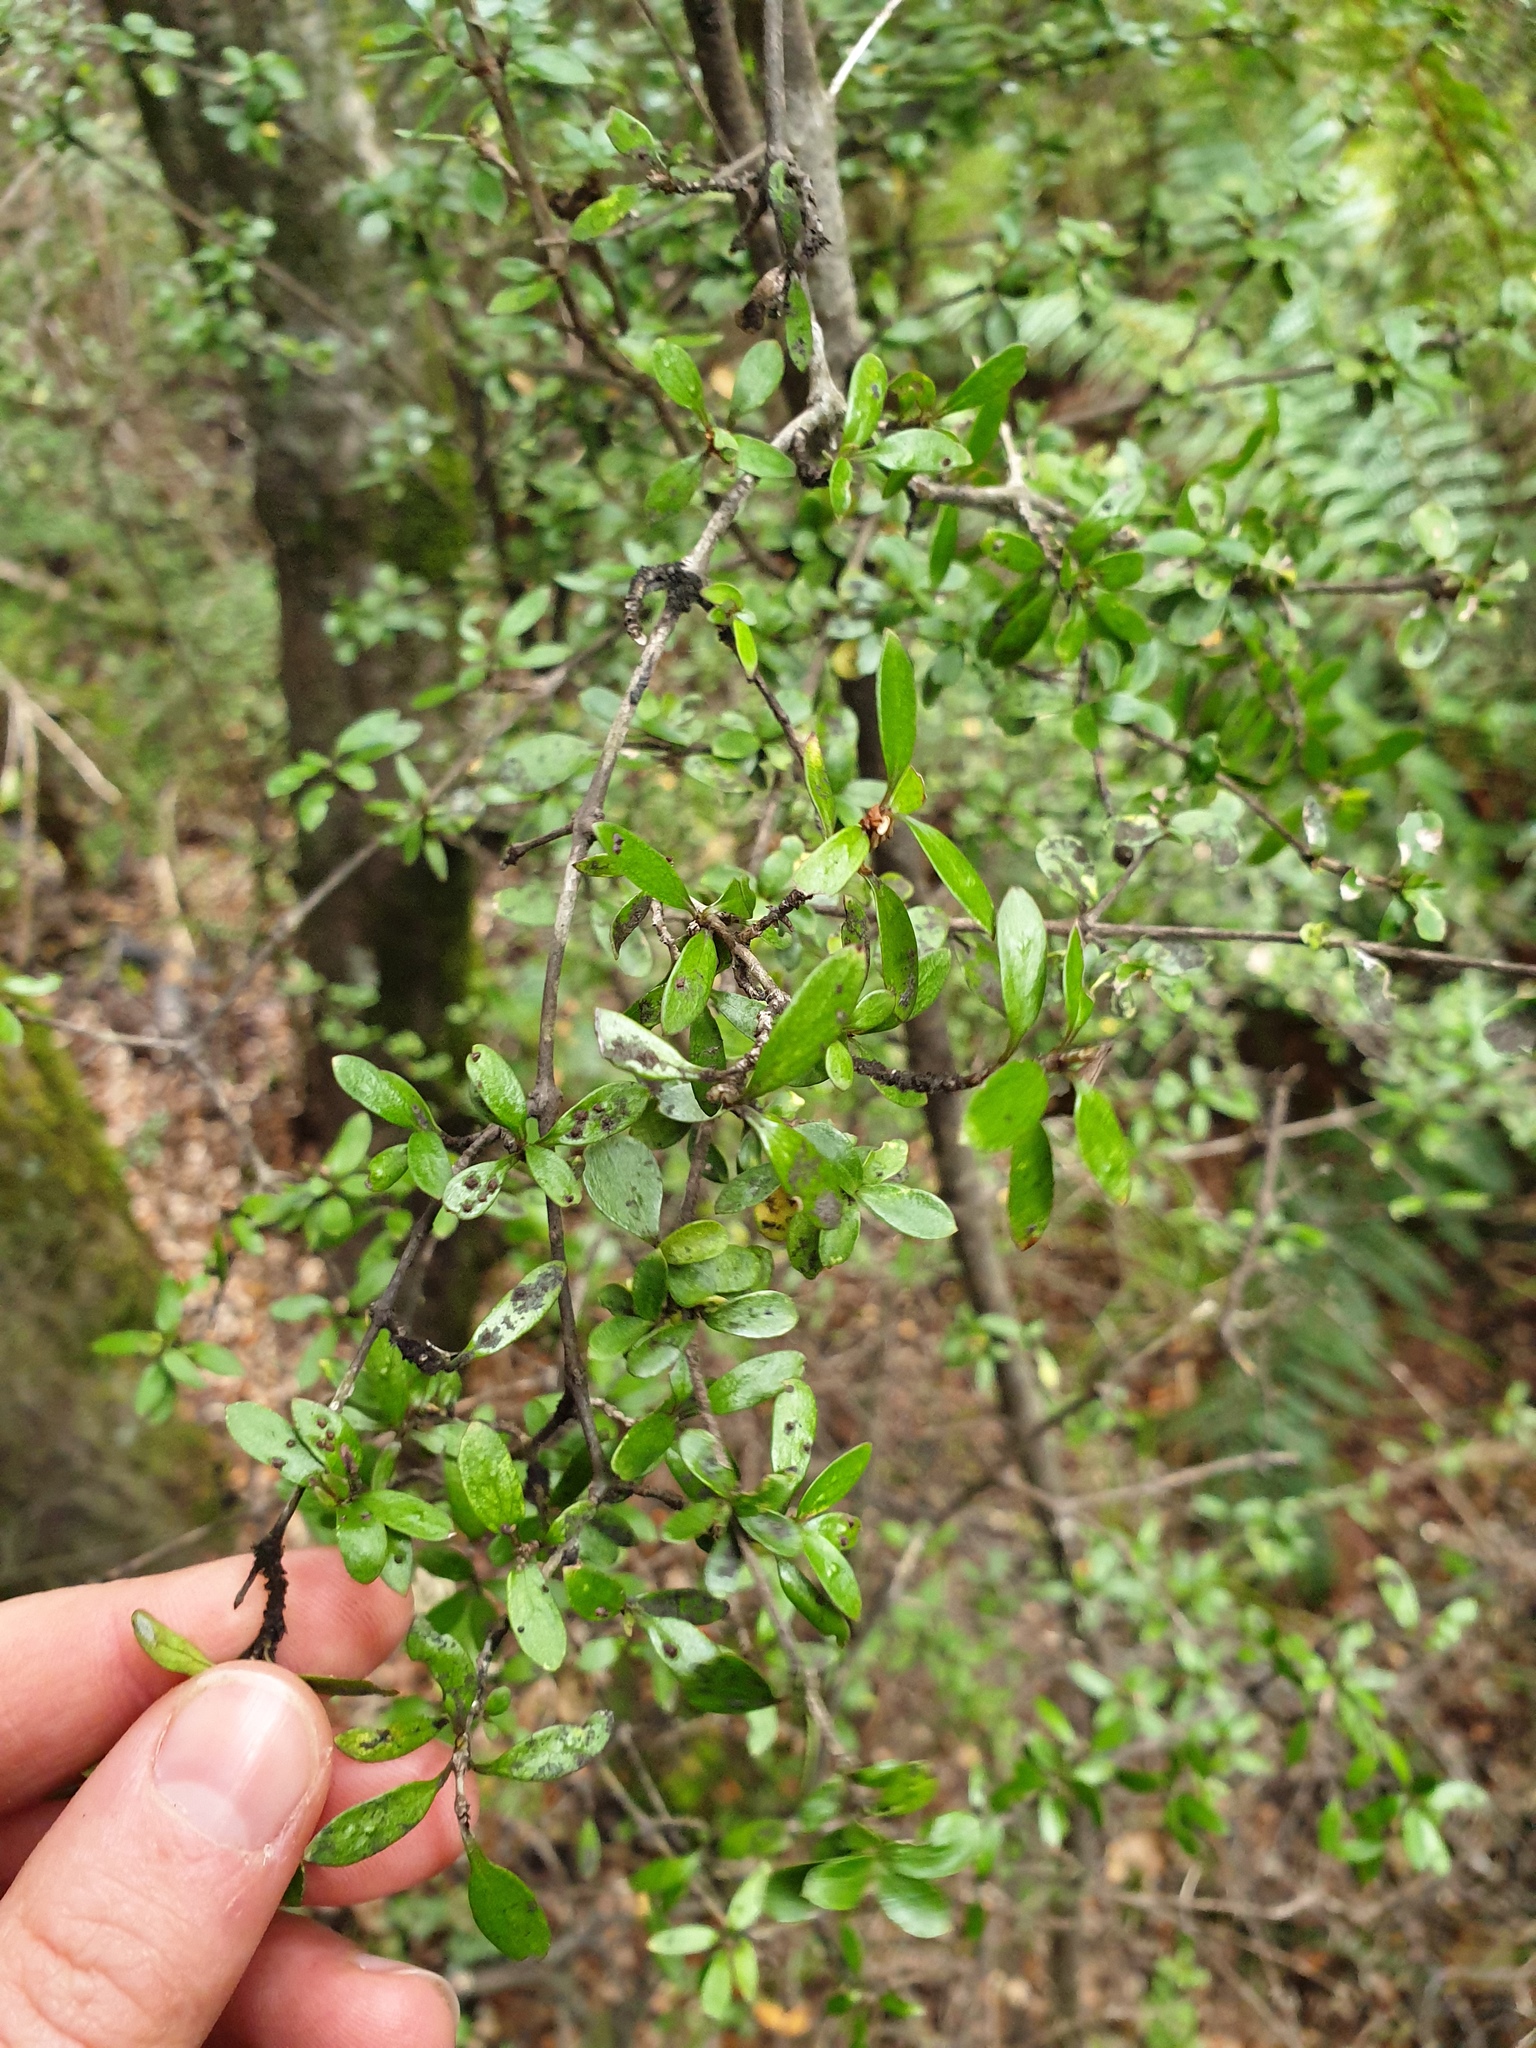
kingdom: Plantae
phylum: Tracheophyta
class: Magnoliopsida
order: Gentianales
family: Rubiaceae
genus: Coprosma
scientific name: Coprosma propinqua
